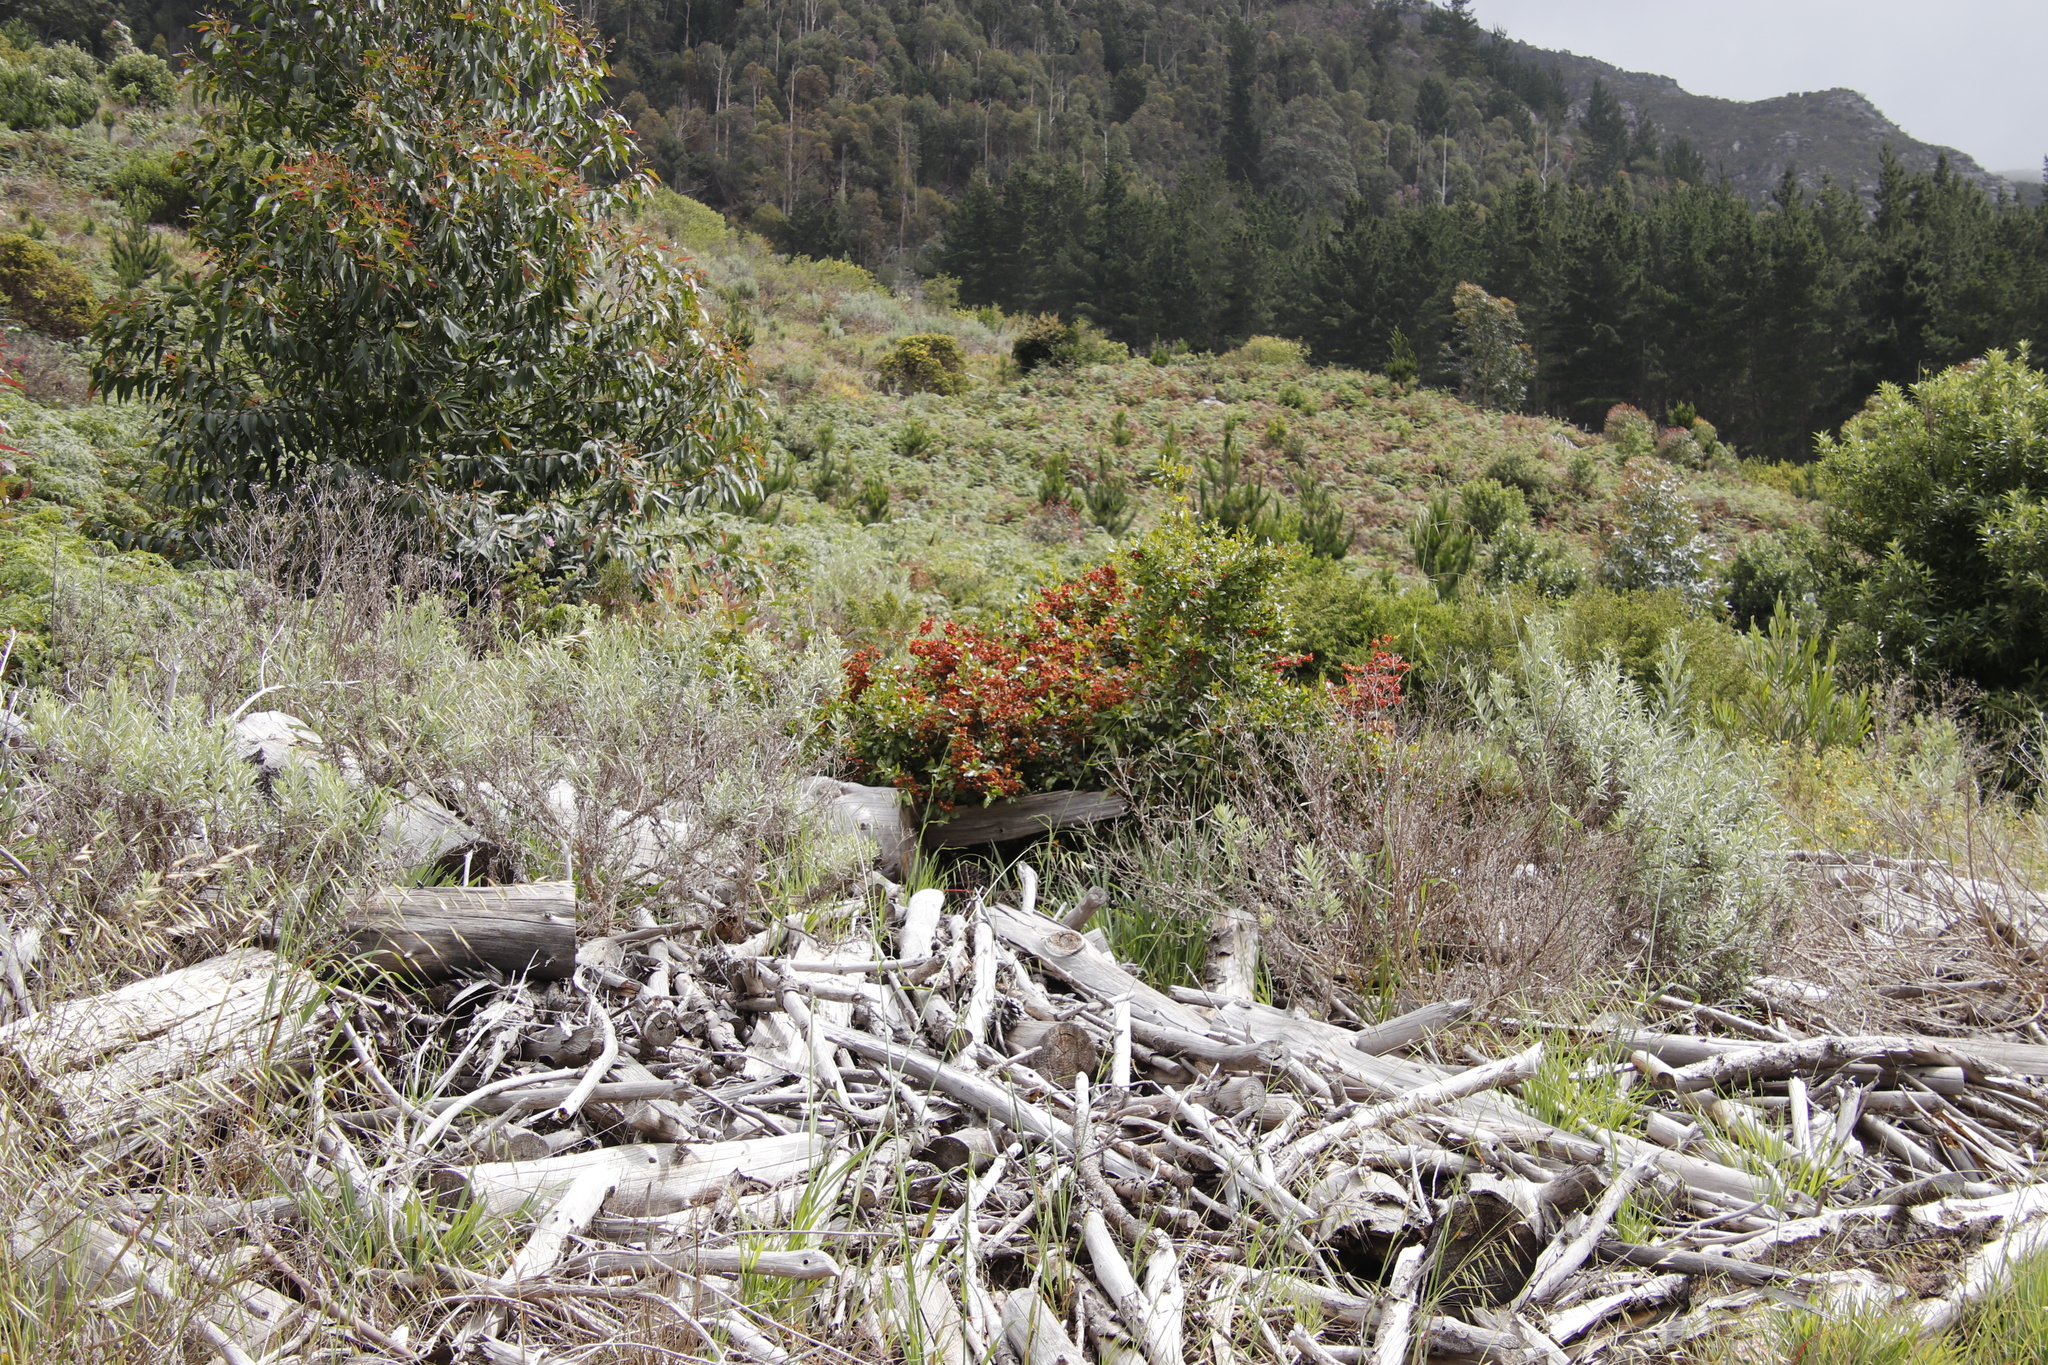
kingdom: Plantae
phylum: Tracheophyta
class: Magnoliopsida
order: Malpighiales
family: Ochnaceae
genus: Ochna
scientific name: Ochna serrulata
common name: Mickey mouse plant
